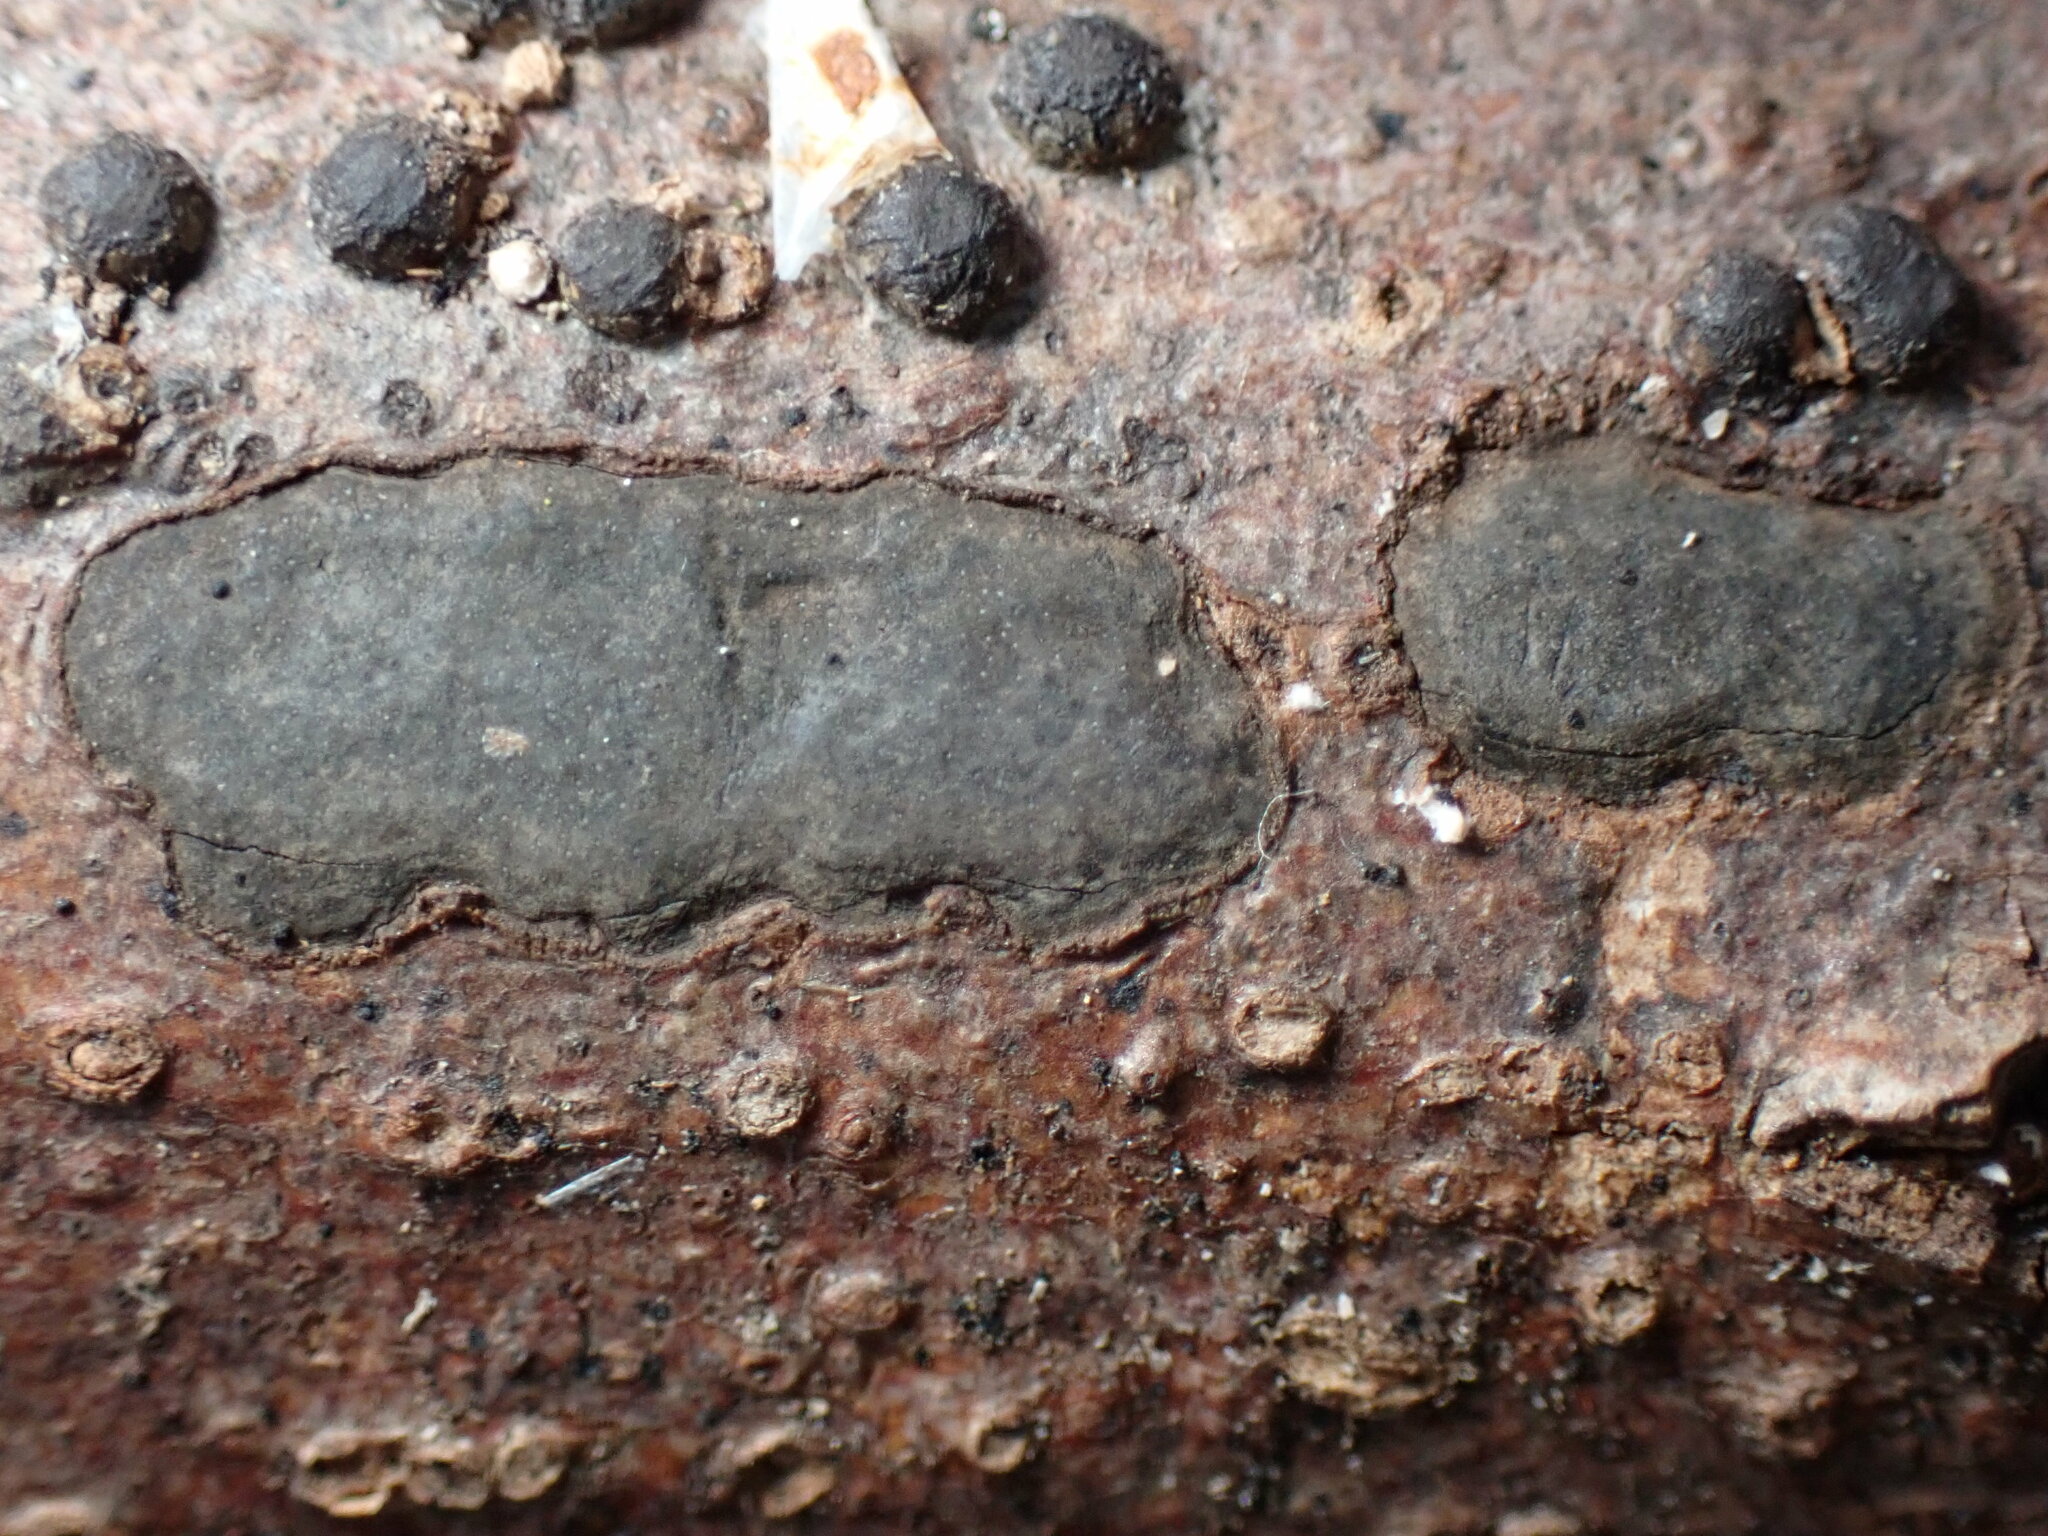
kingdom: Fungi
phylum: Ascomycota
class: Sordariomycetes
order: Xylariales
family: Xylariaceae
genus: Whalleya
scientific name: Whalleya microplaca
